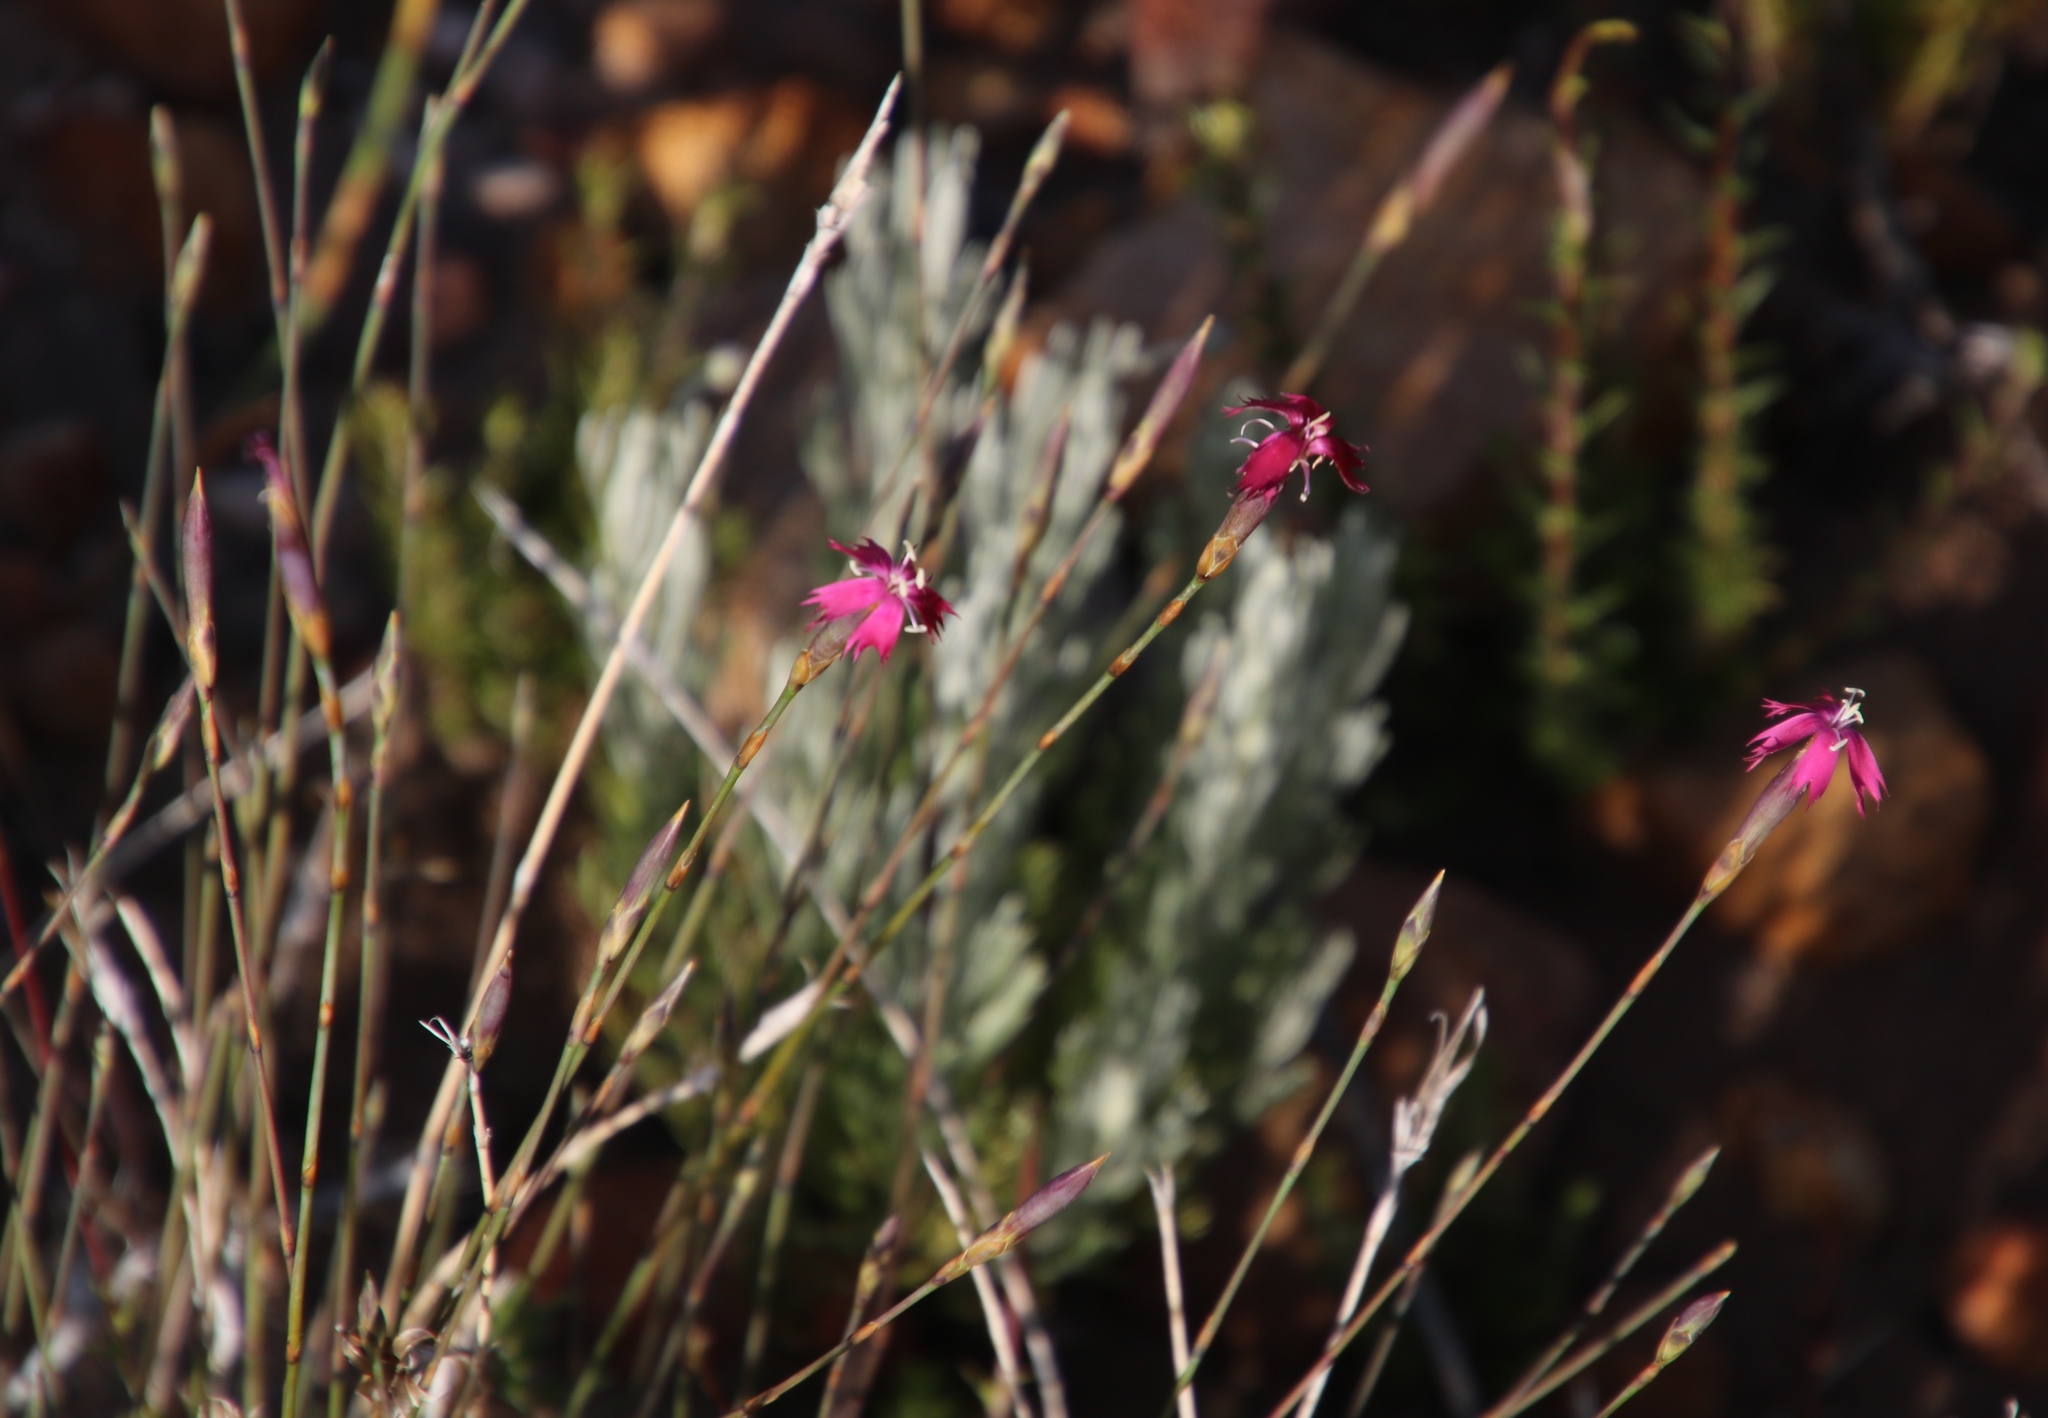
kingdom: Plantae
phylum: Tracheophyta
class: Magnoliopsida
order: Caryophyllales
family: Caryophyllaceae
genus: Dianthus
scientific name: Dianthus bolusii
